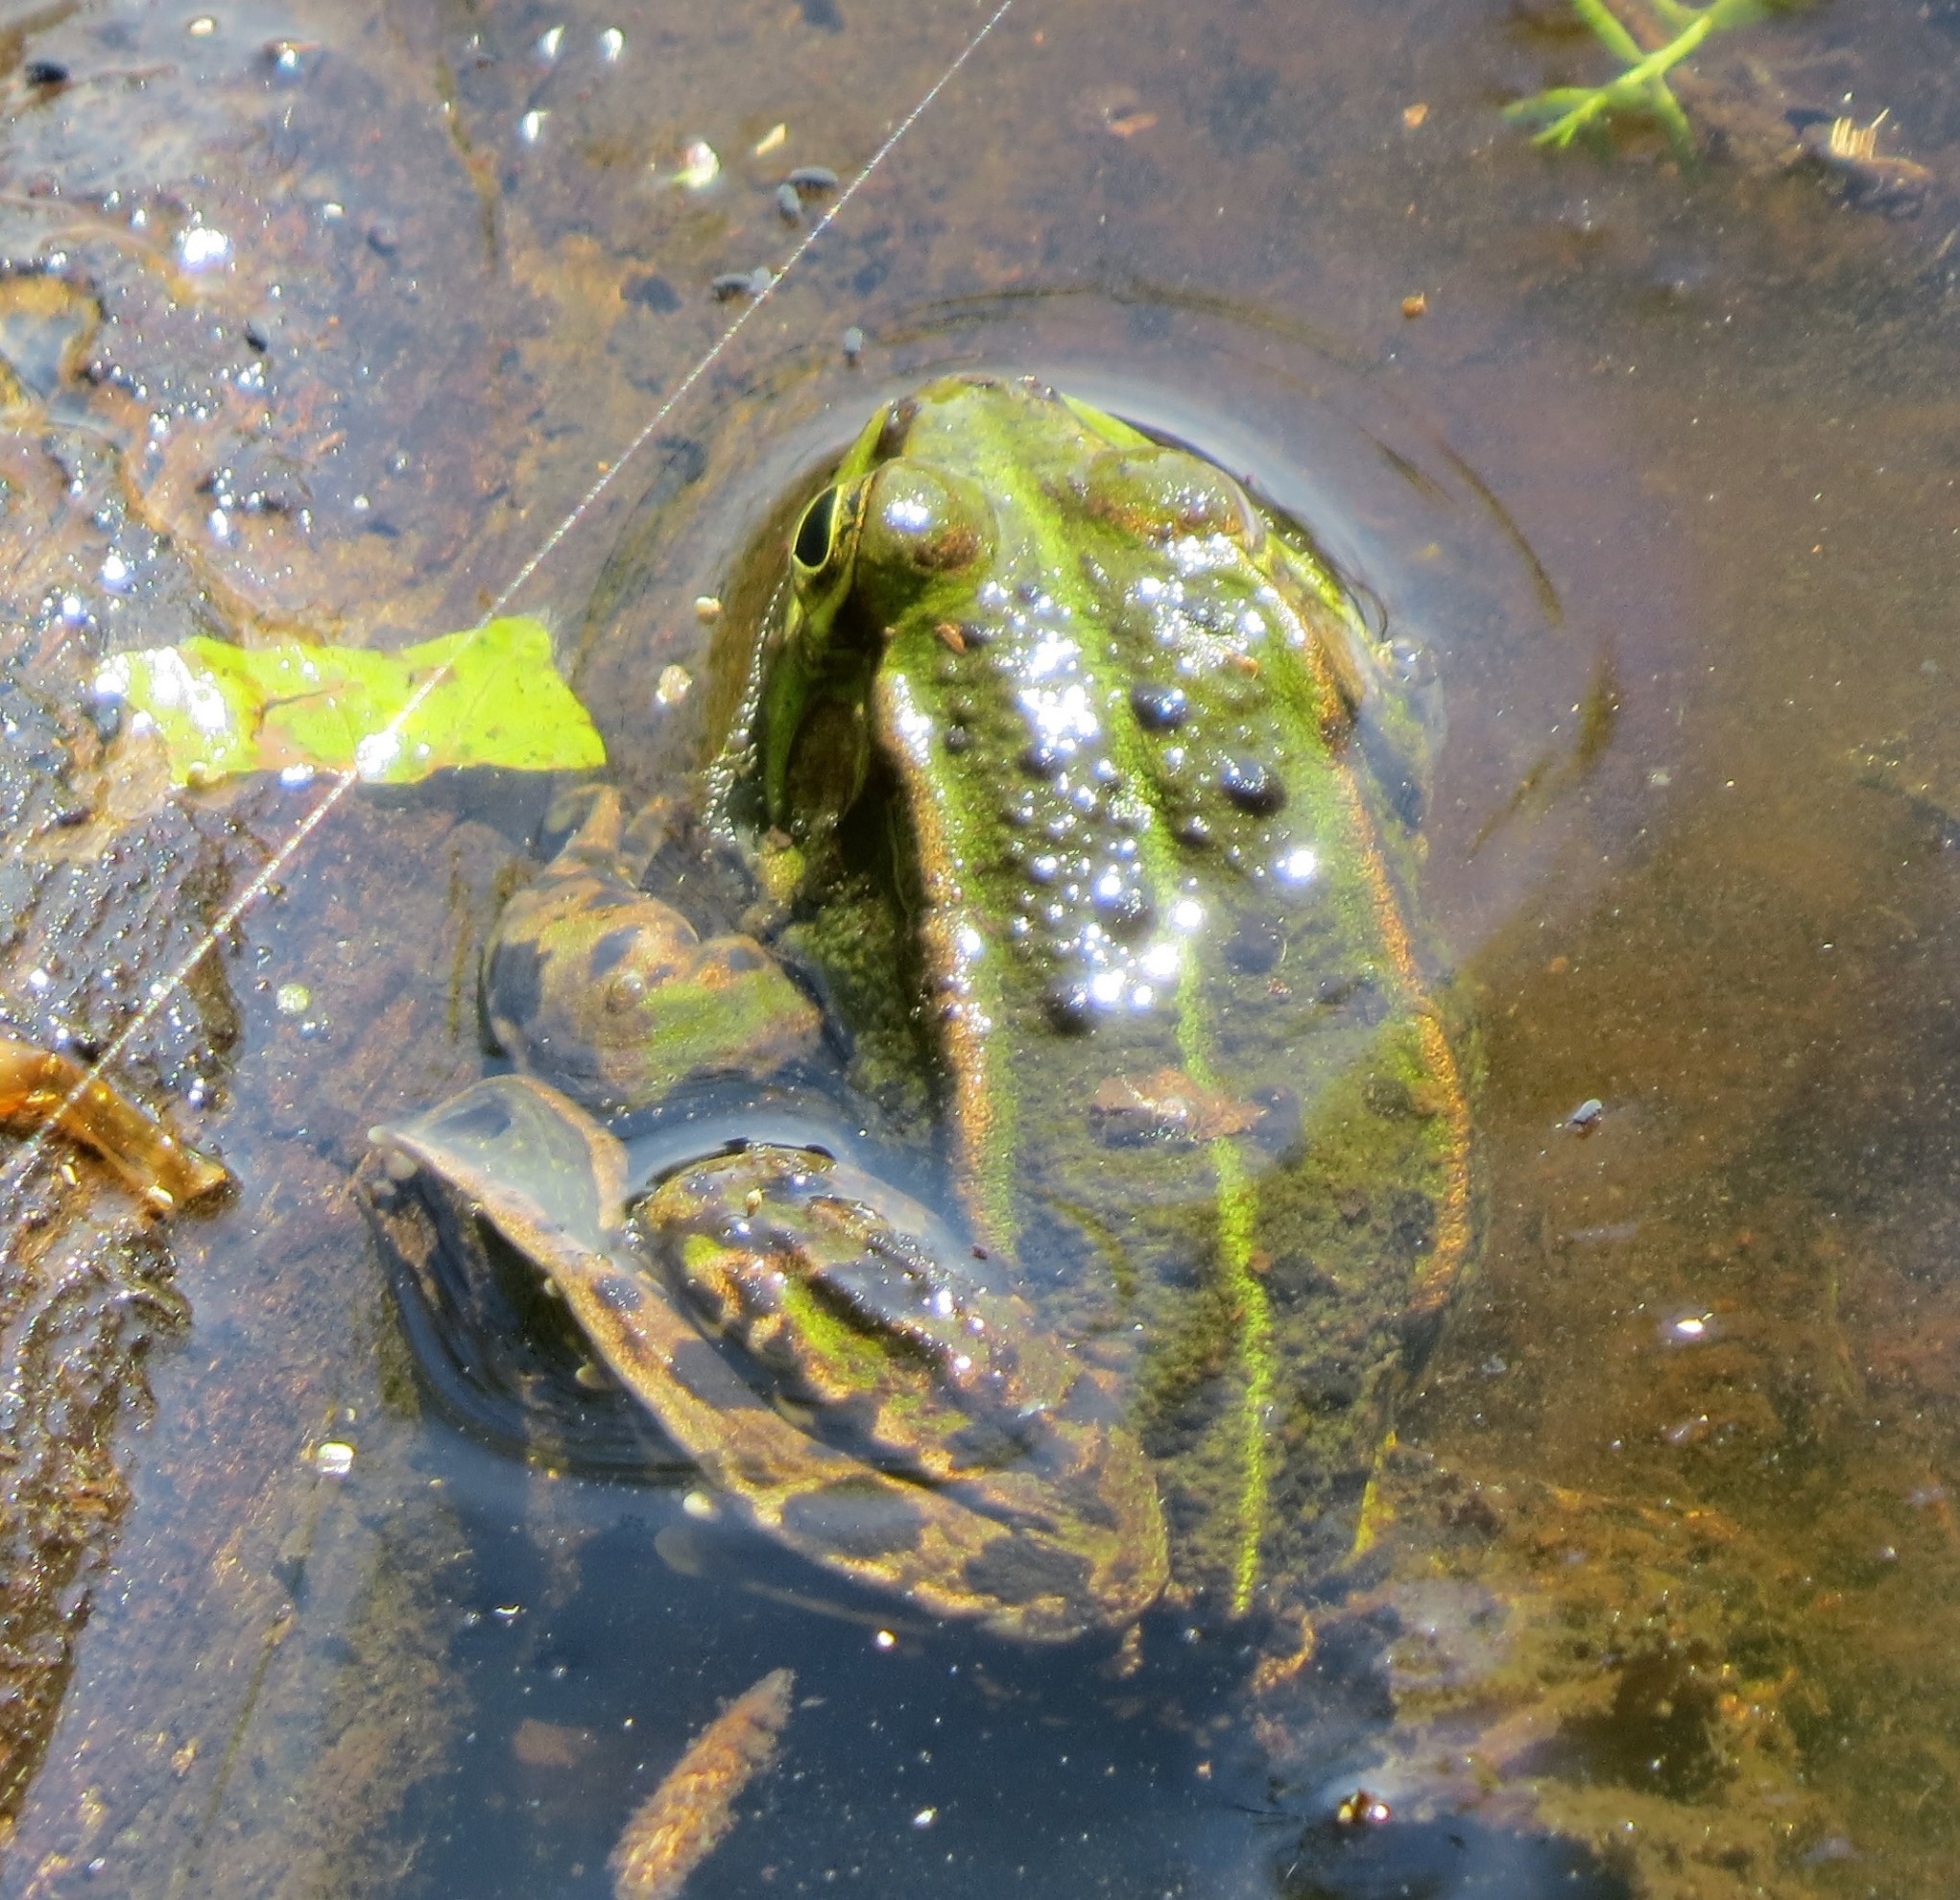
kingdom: Animalia
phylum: Chordata
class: Amphibia
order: Anura
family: Ranidae
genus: Pelophylax
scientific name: Pelophylax
